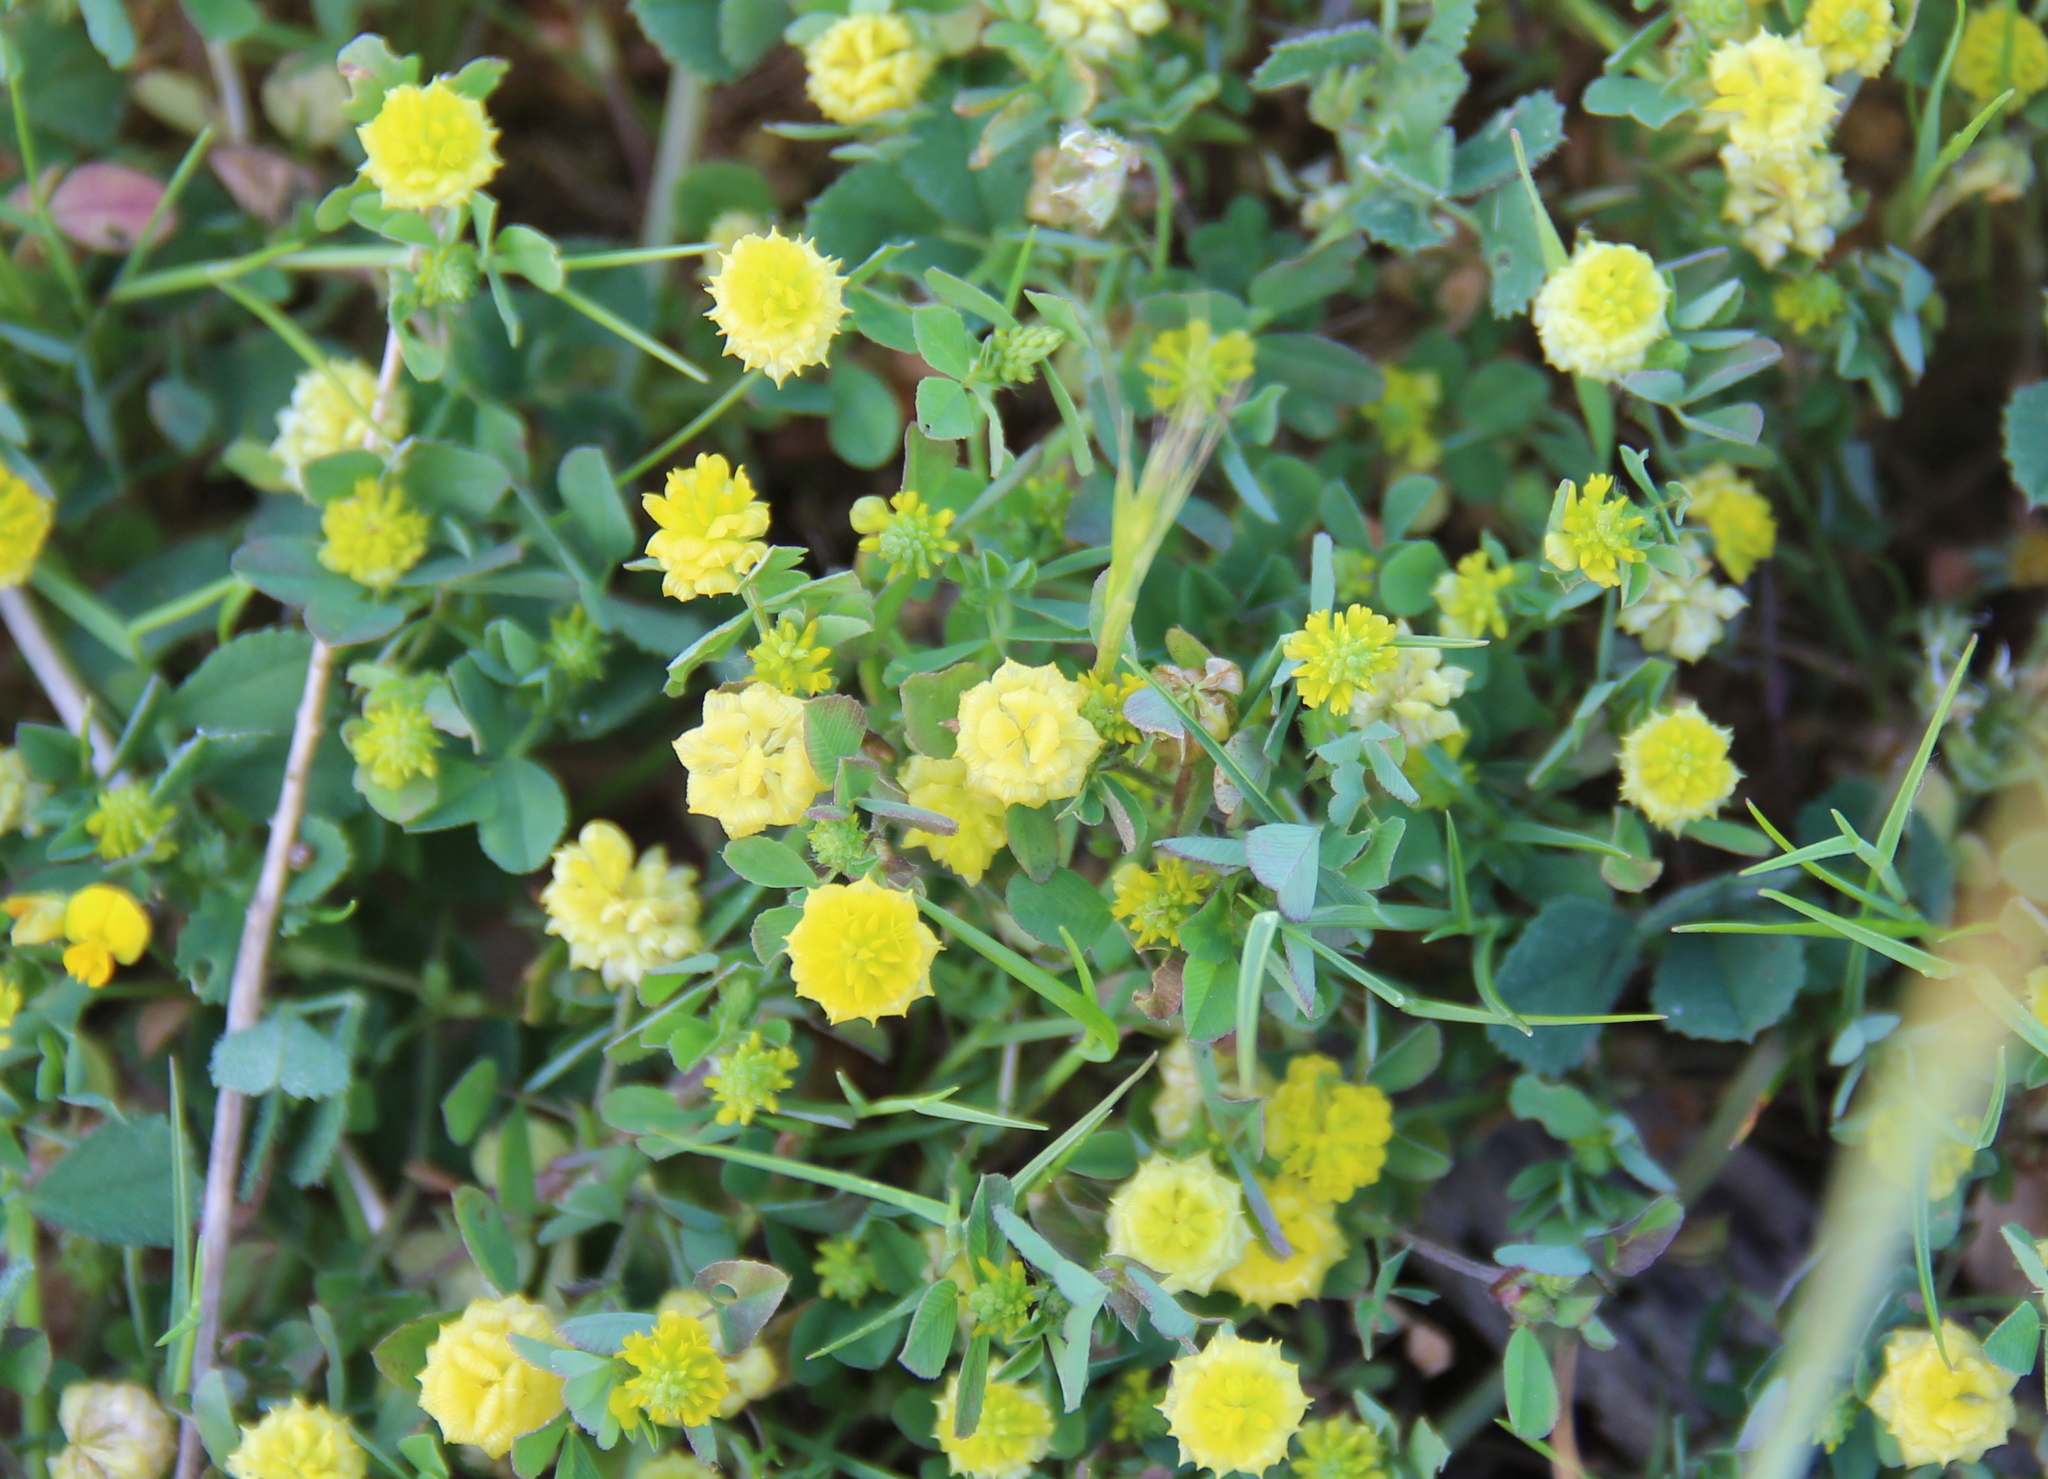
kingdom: Plantae
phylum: Tracheophyta
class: Magnoliopsida
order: Fabales
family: Fabaceae
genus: Trifolium
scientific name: Trifolium campestre
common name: Field clover
